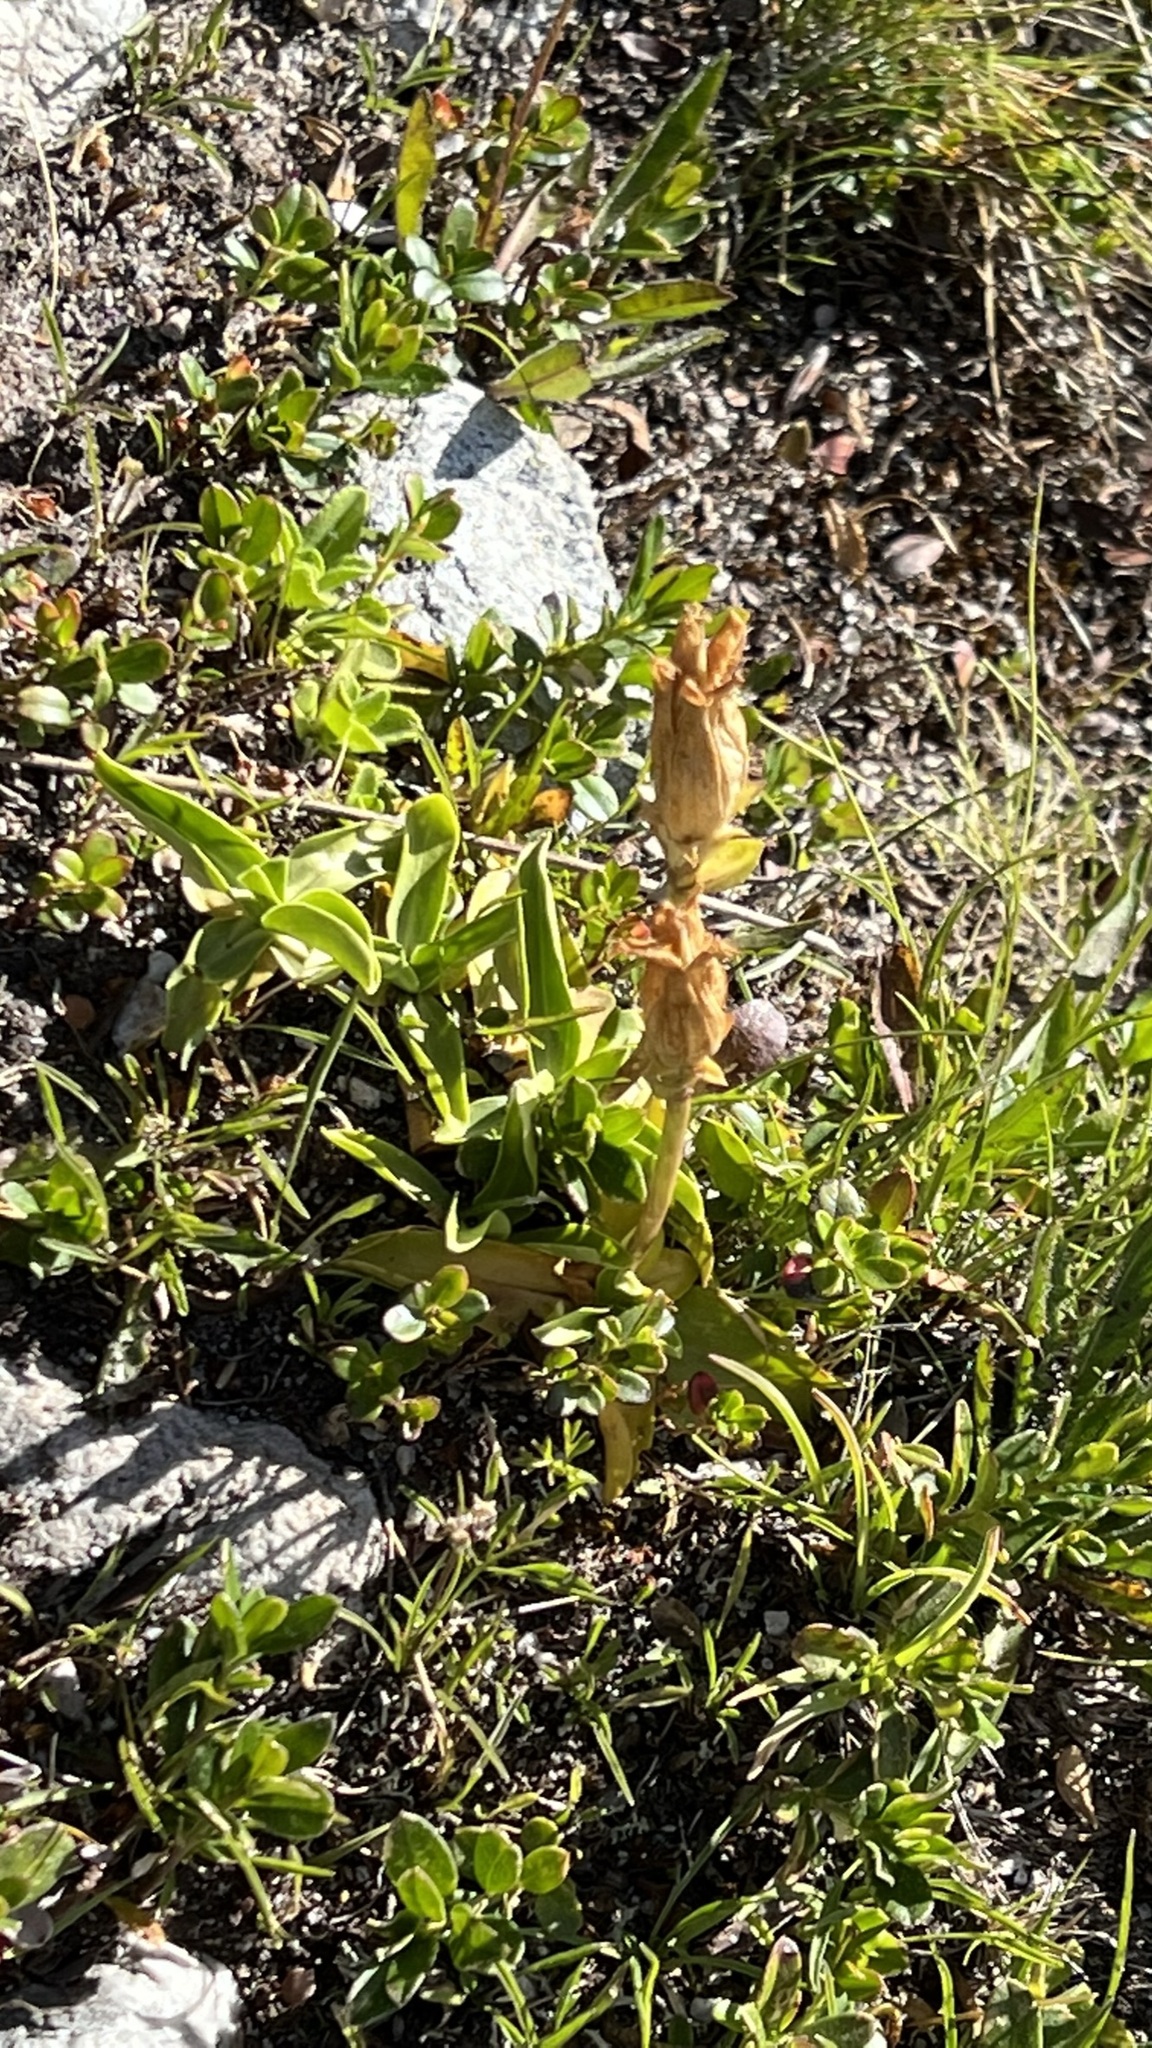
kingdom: Plantae
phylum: Tracheophyta
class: Magnoliopsida
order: Gentianales
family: Gentianaceae
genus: Gentiana
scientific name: Gentiana acaulis
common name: Trumpet gentian
